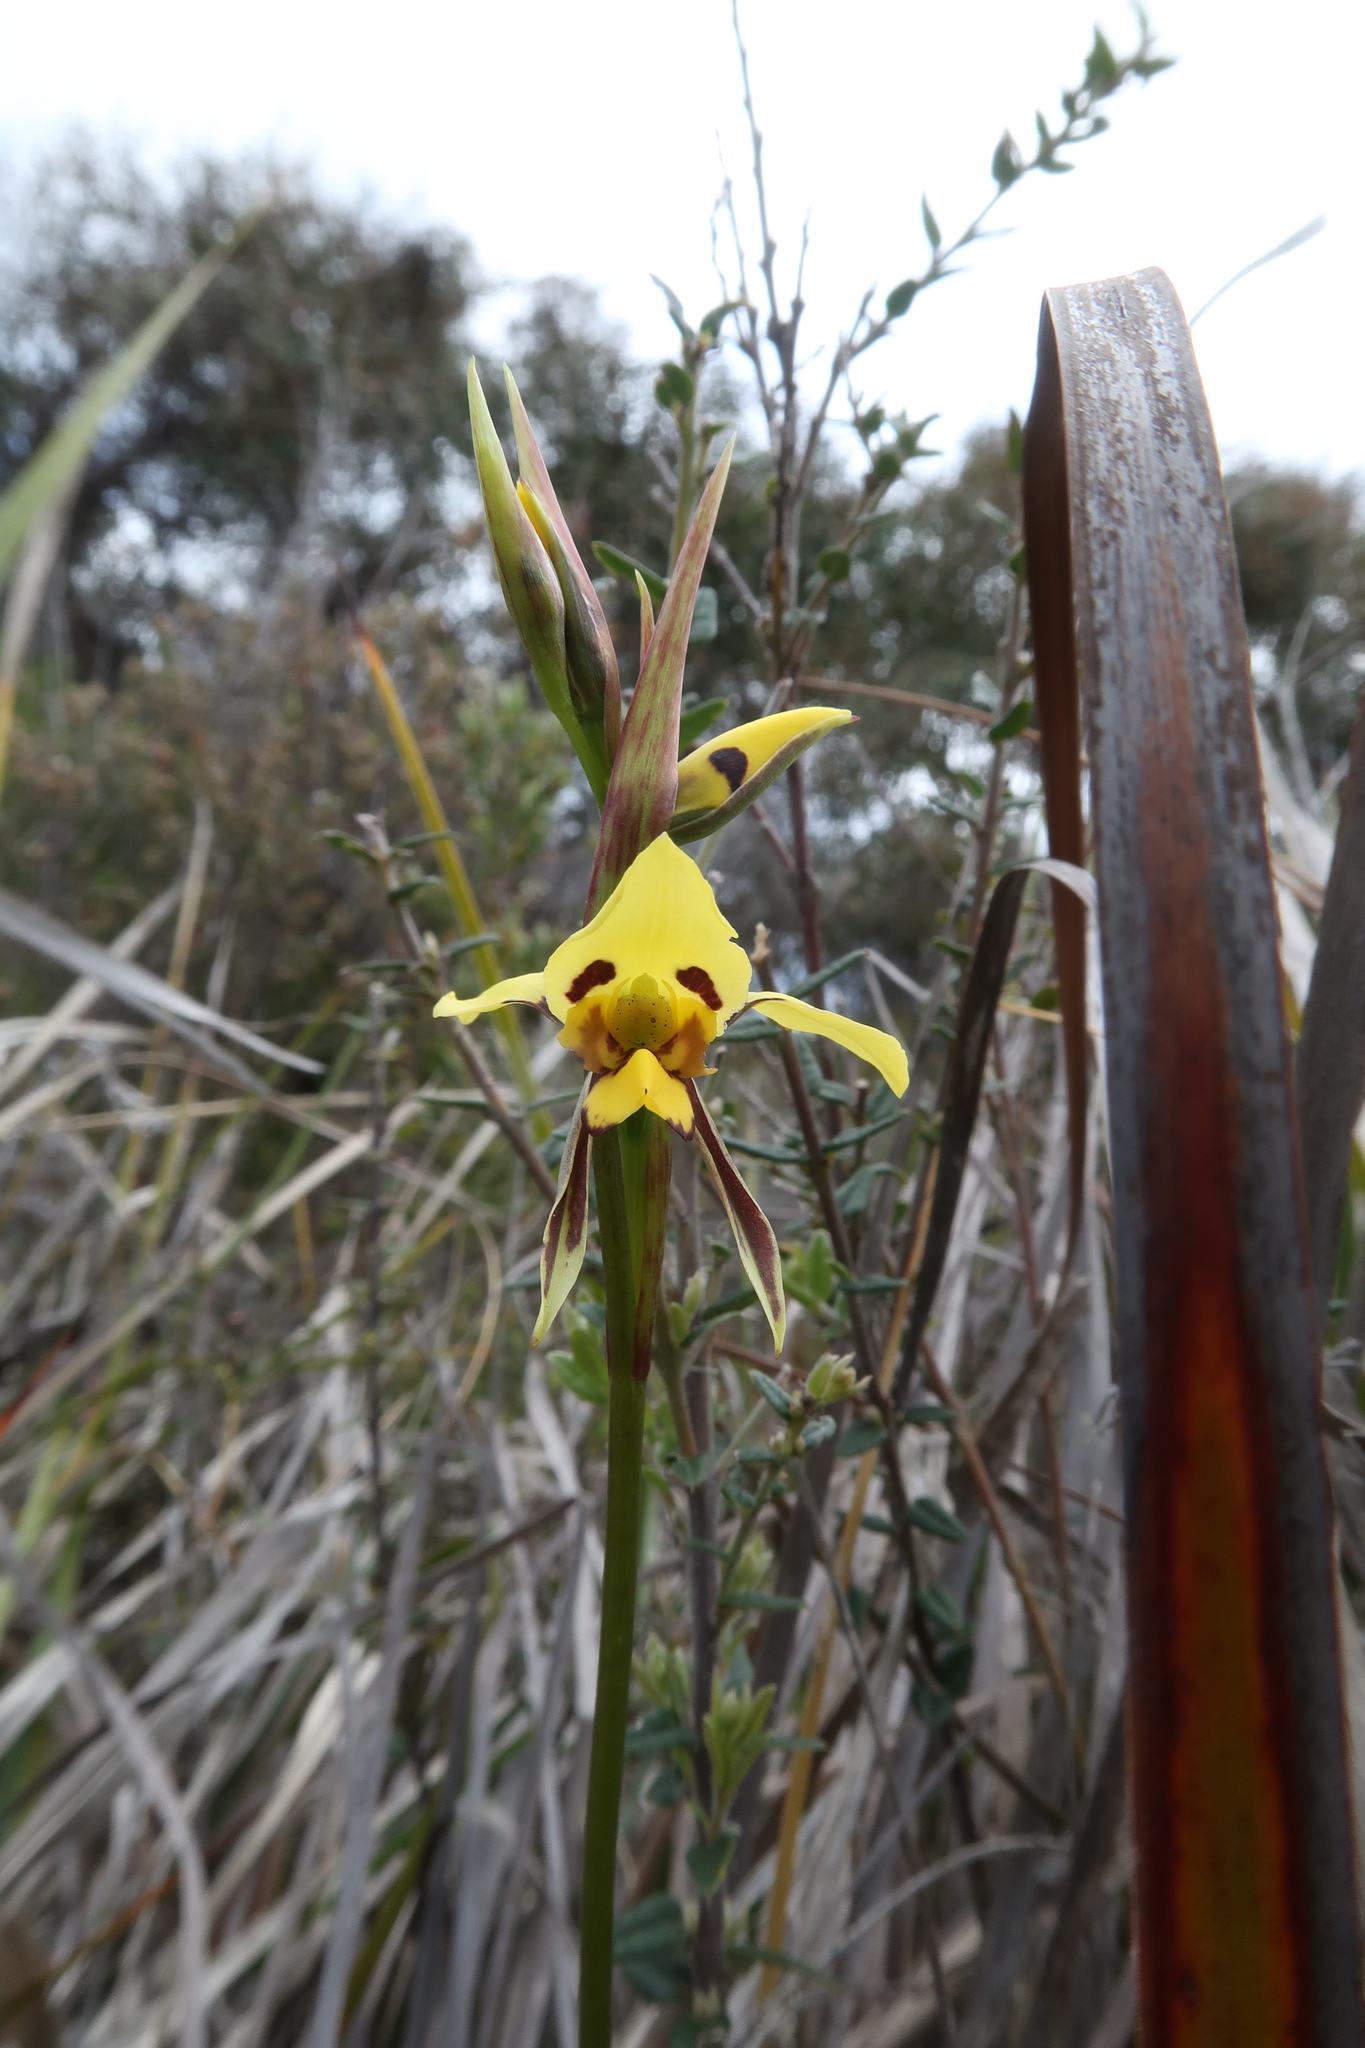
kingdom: Plantae
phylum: Tracheophyta
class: Liliopsida
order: Asparagales
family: Orchidaceae
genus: Diuris
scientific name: Diuris sulphurea
